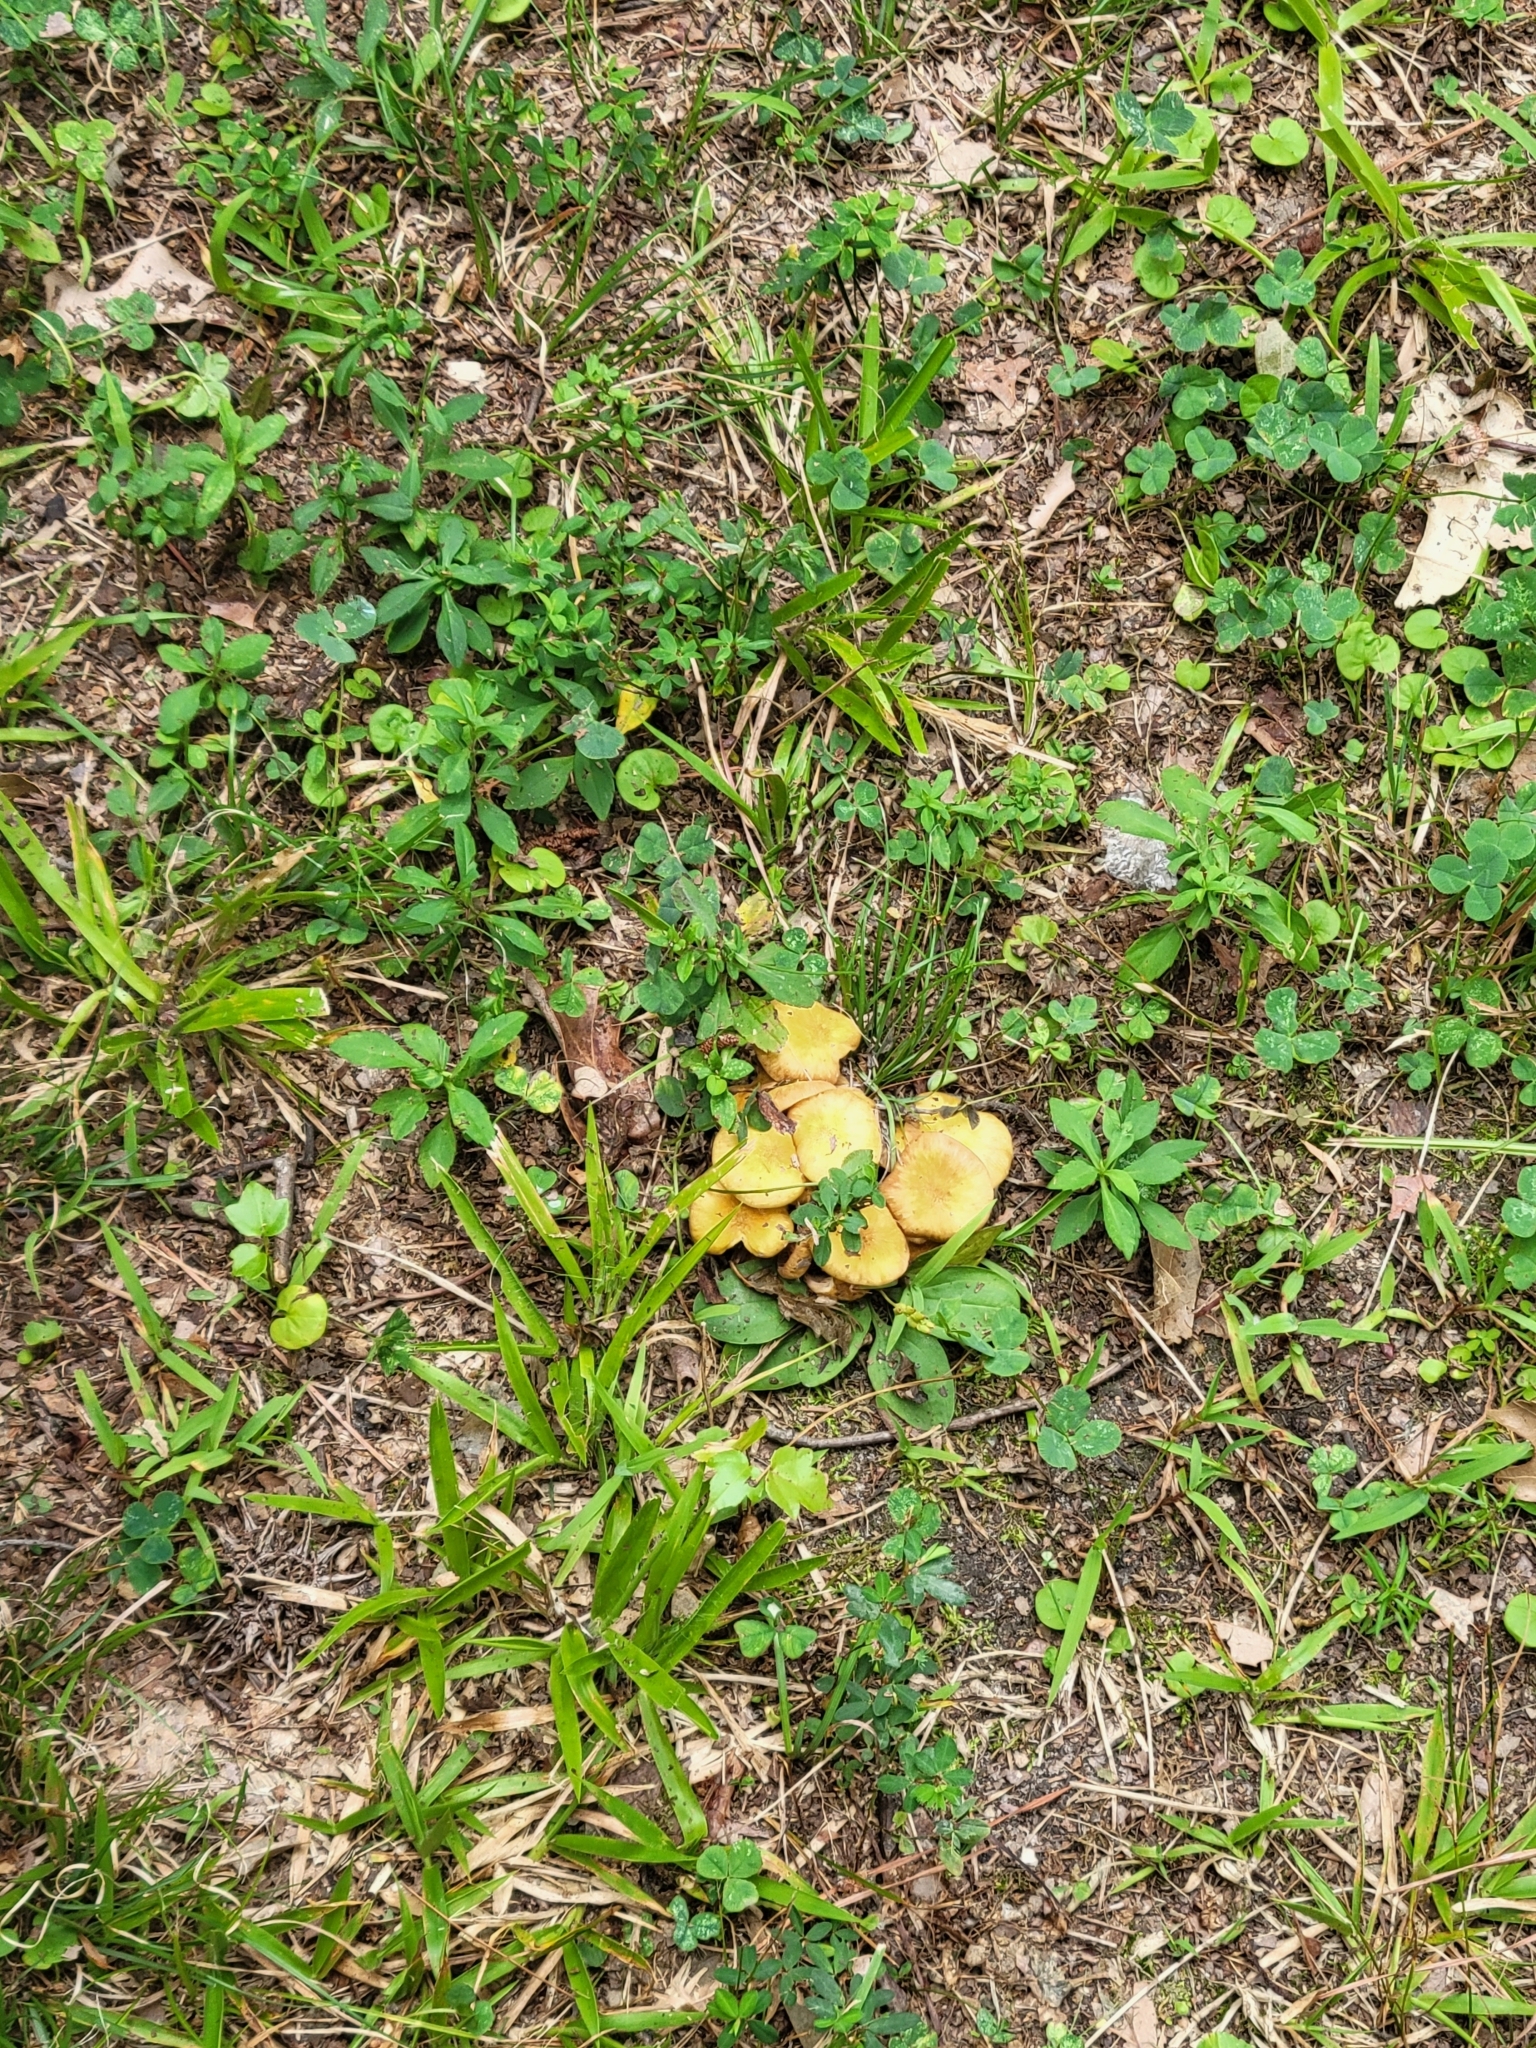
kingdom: Fungi
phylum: Basidiomycota
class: Agaricomycetes
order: Boletales
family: Suillaceae
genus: Suillus
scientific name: Suillus americanus
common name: Chicken fat mushroom
